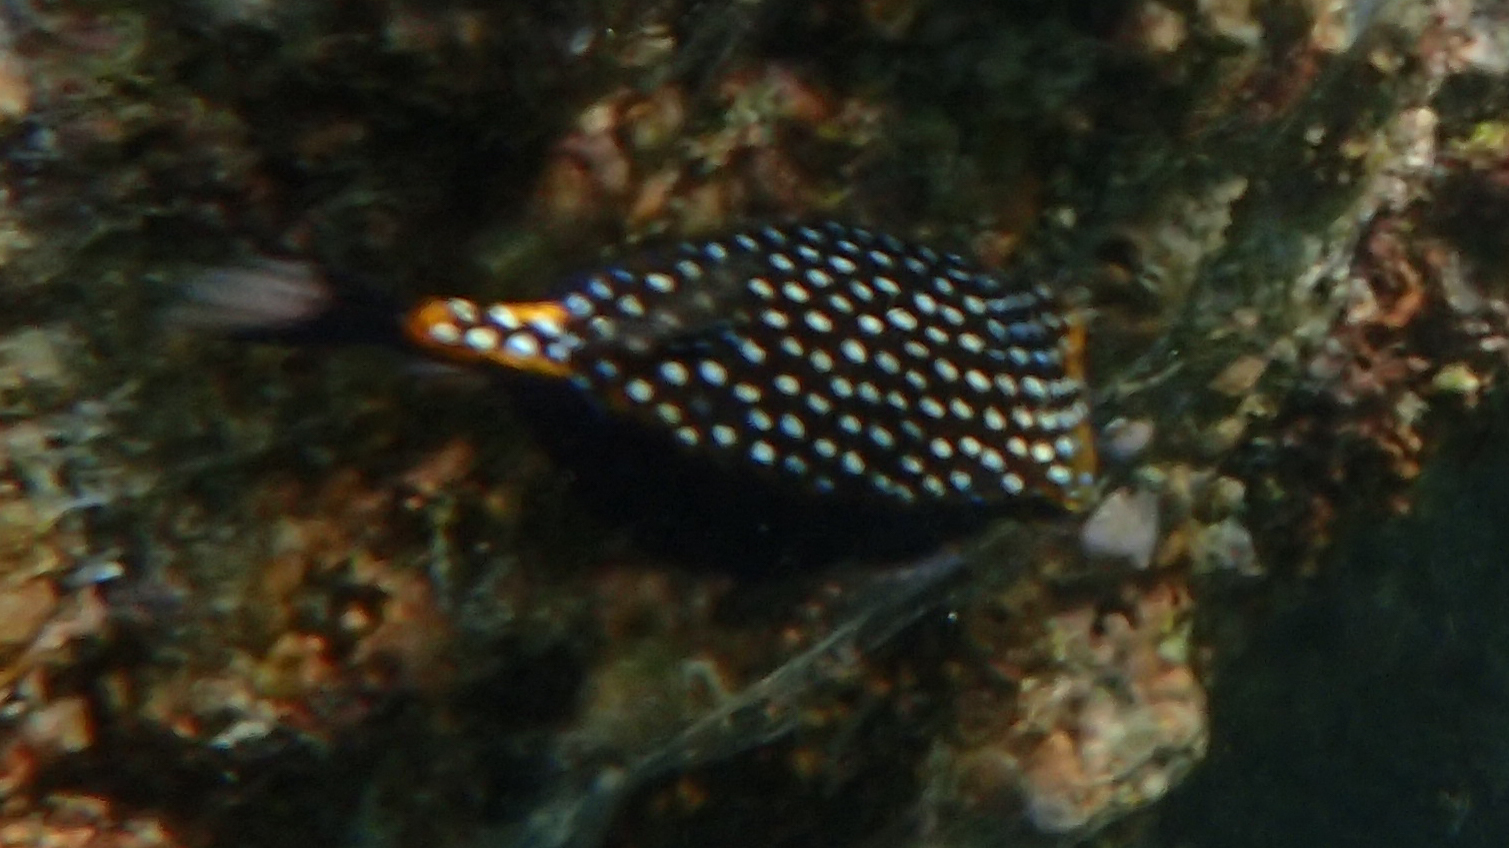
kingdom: Animalia
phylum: Chordata
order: Tetraodontiformes
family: Ostraciidae
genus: Ostracion
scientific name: Ostracion meleagris
